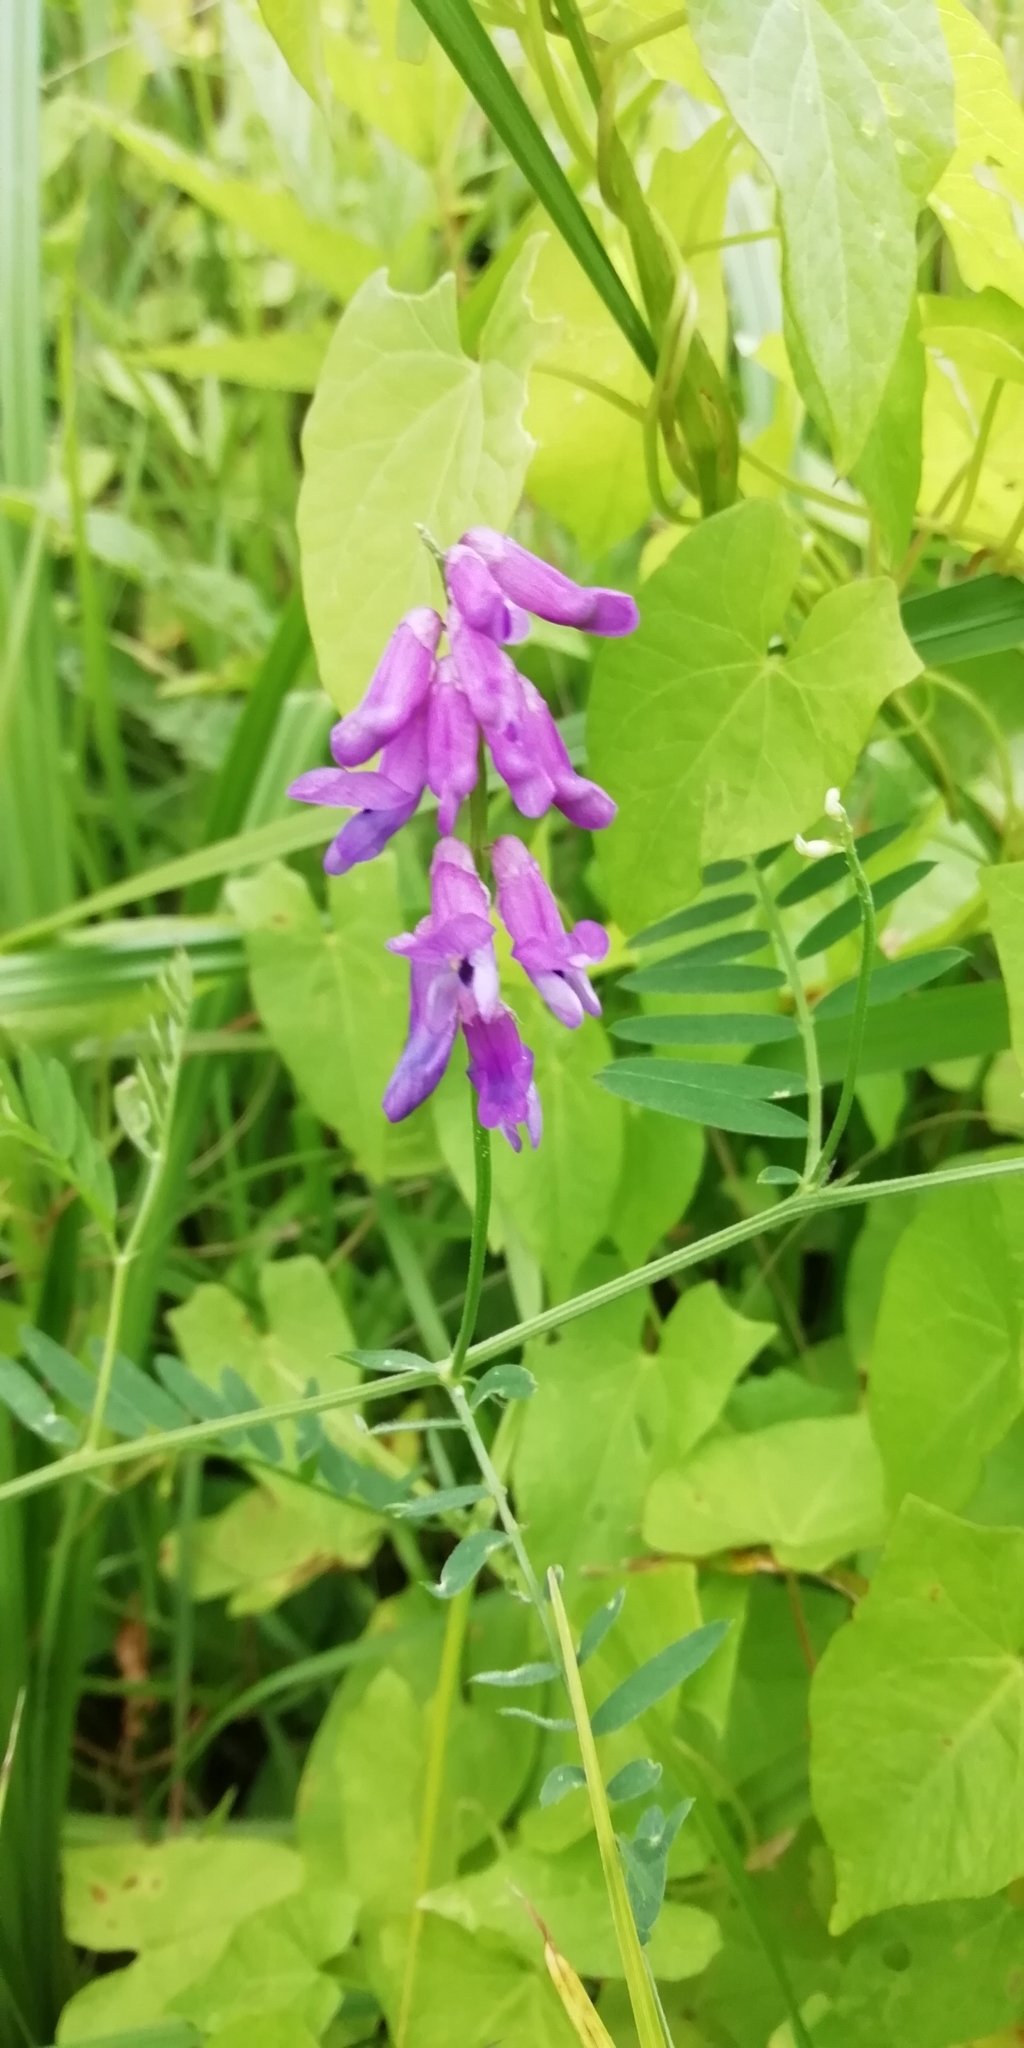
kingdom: Plantae
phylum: Tracheophyta
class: Magnoliopsida
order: Fabales
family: Fabaceae
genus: Vicia
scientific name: Vicia cracca
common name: Bird vetch
